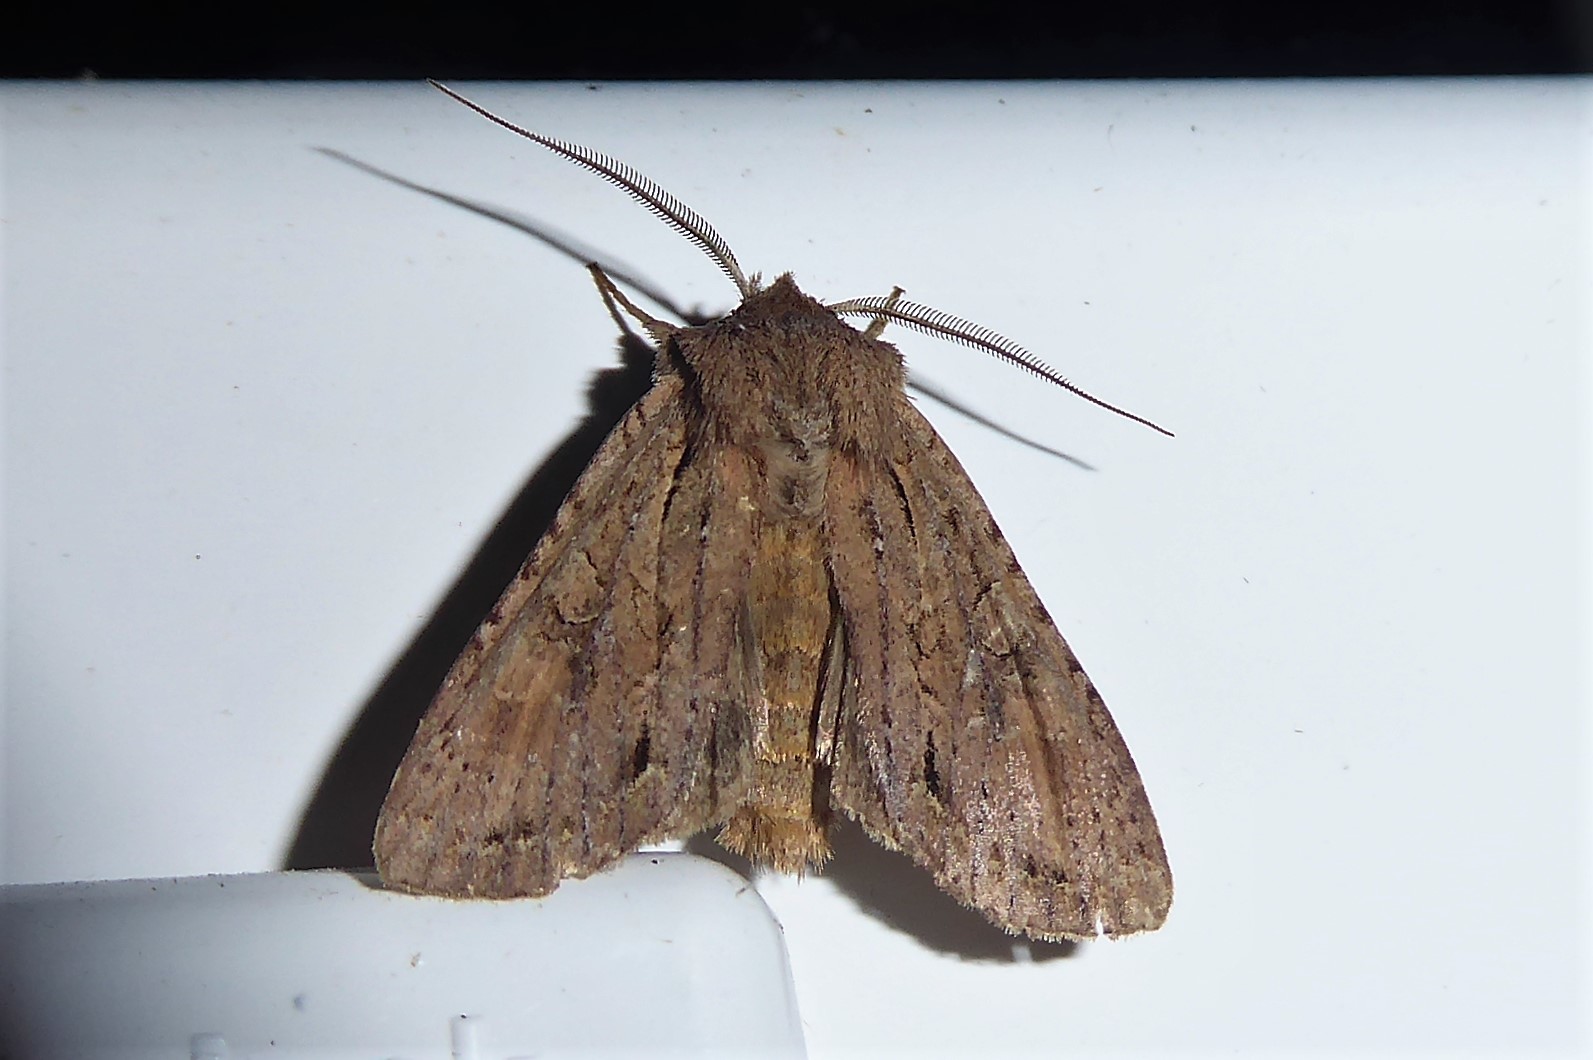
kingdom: Animalia
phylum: Arthropoda
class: Insecta
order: Lepidoptera
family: Noctuidae
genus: Ichneutica
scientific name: Ichneutica
